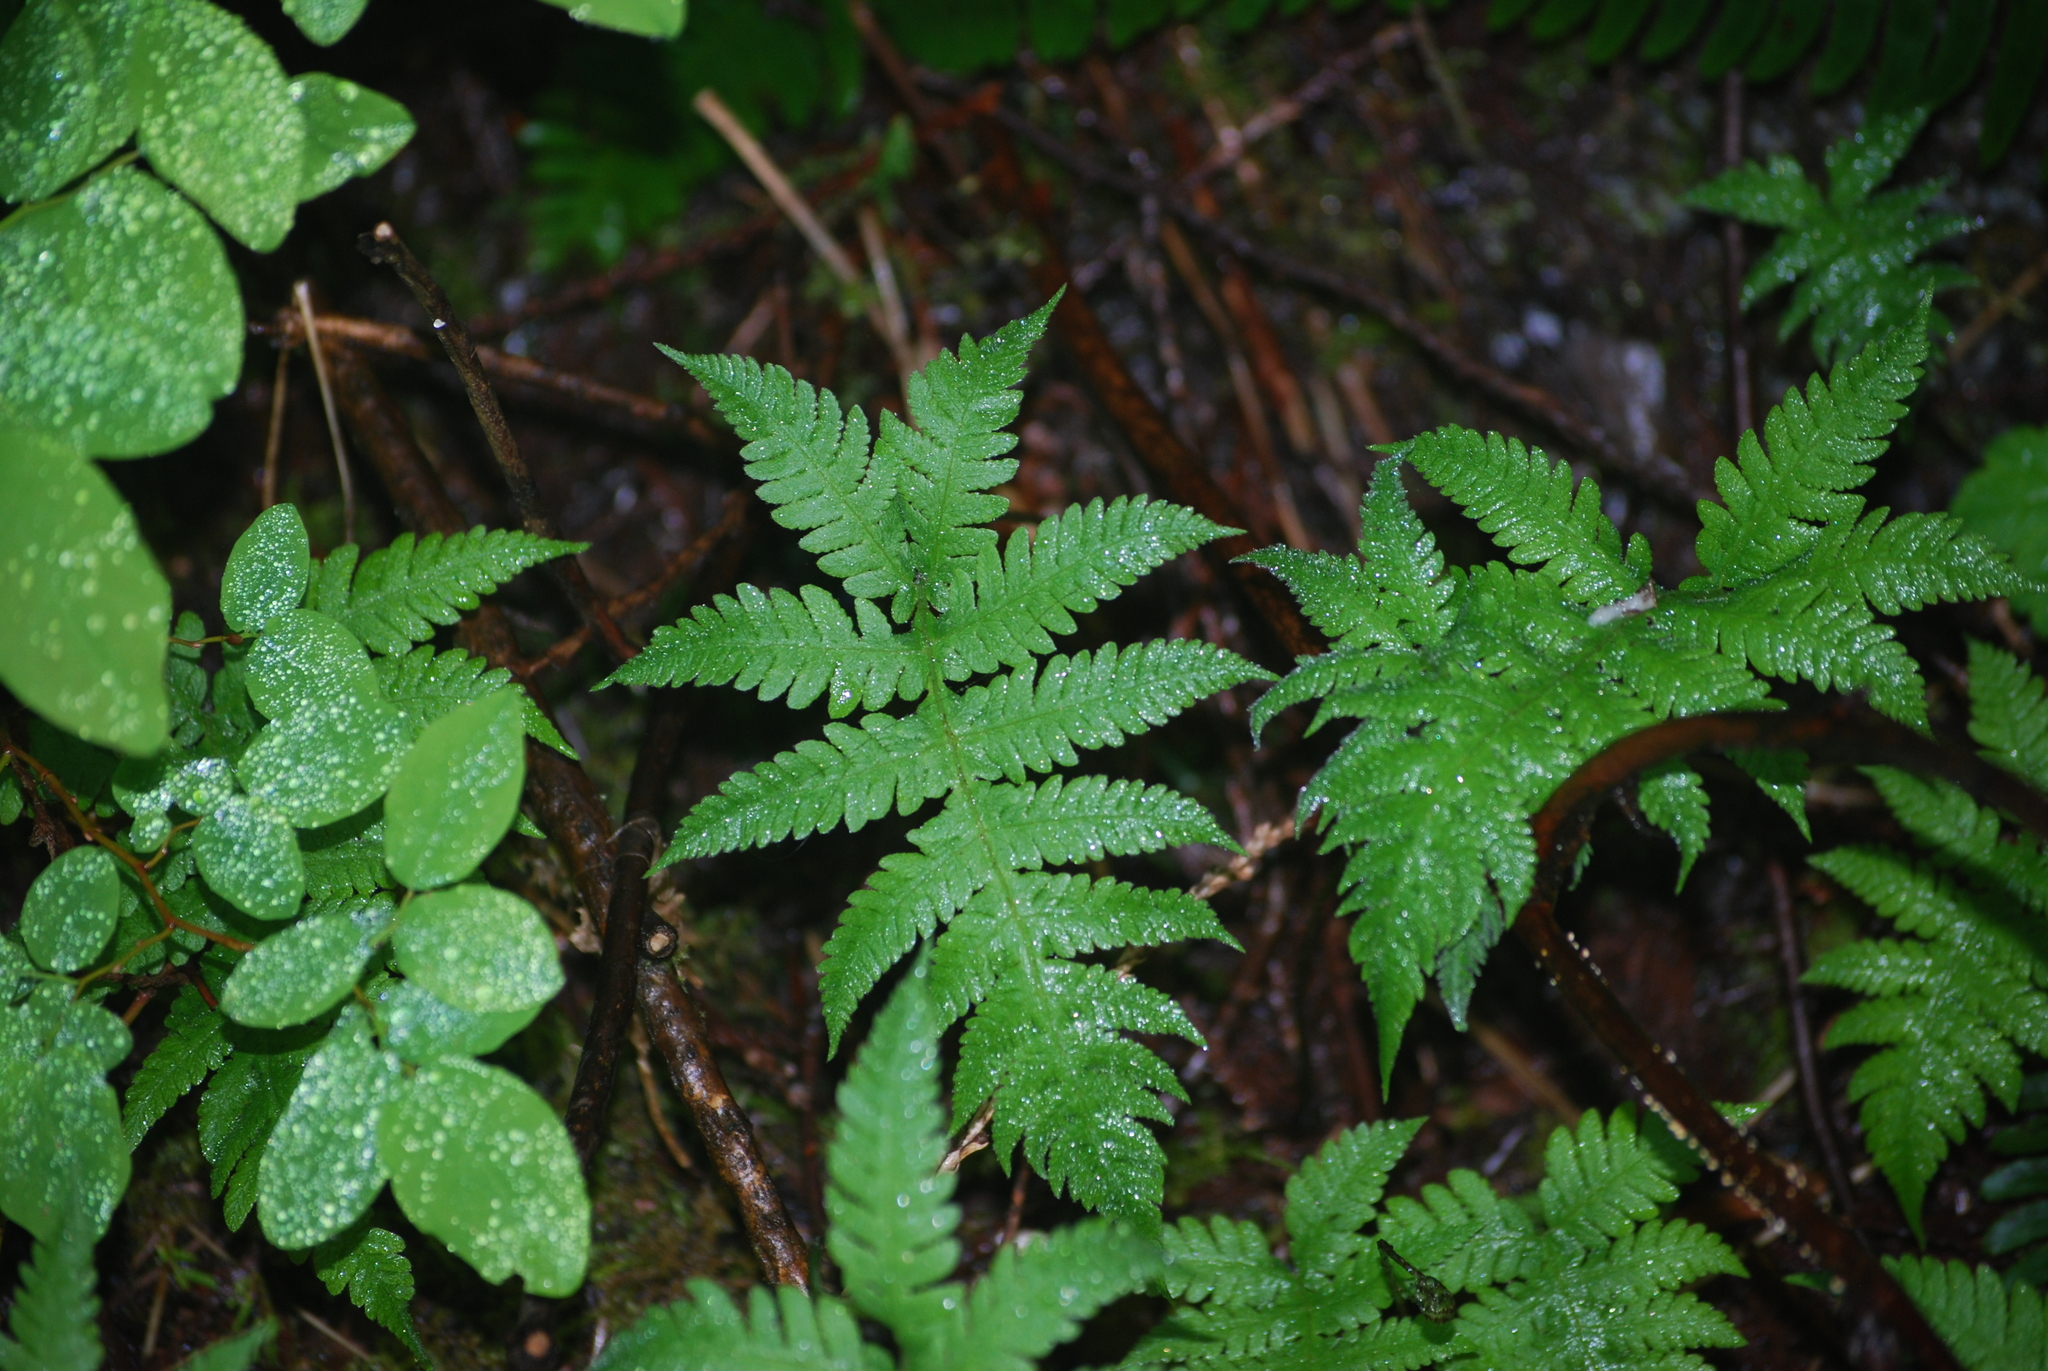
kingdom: Plantae
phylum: Tracheophyta
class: Polypodiopsida
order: Polypodiales
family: Thelypteridaceae
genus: Phegopteris
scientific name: Phegopteris connectilis
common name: Beech fern
